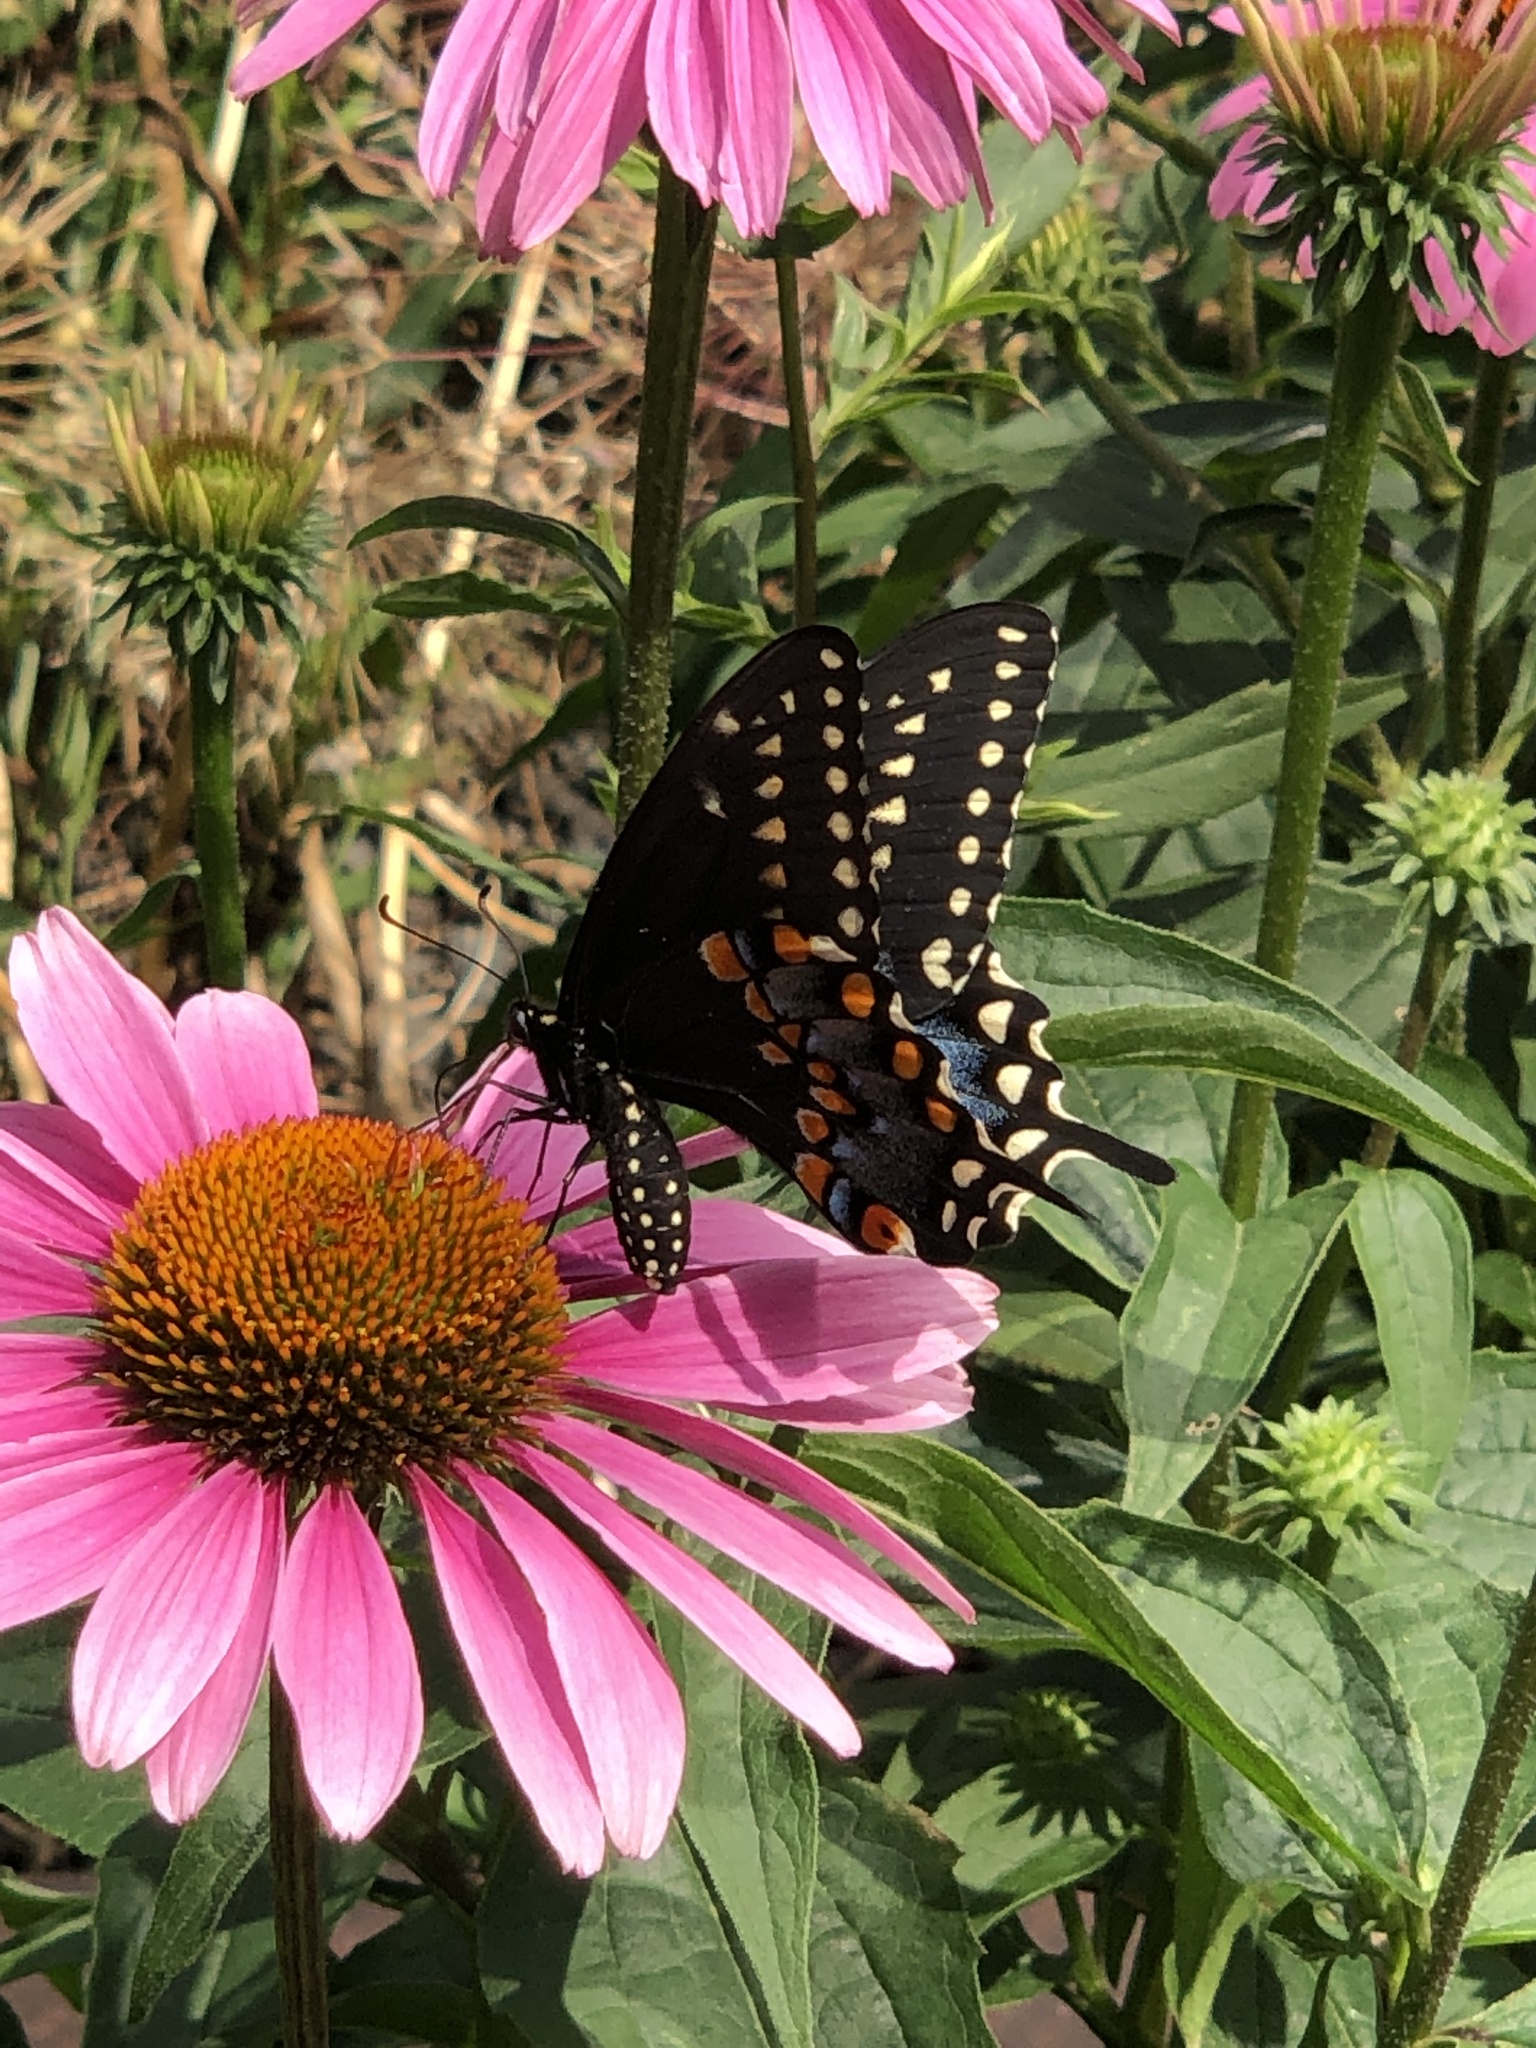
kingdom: Animalia
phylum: Arthropoda
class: Insecta
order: Lepidoptera
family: Papilionidae
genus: Papilio
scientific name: Papilio polyxenes
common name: Black swallowtail
